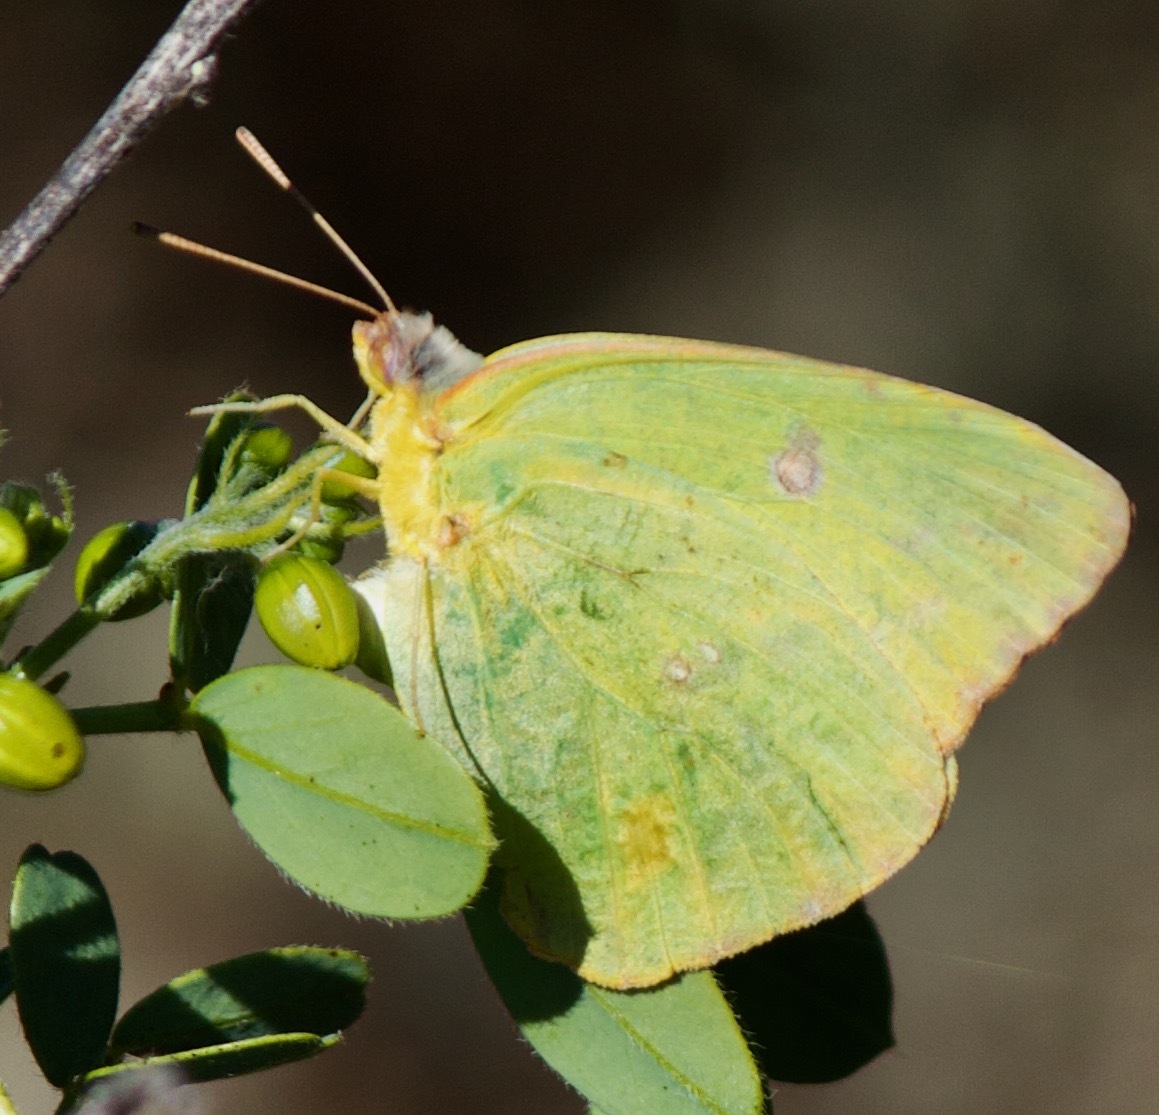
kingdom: Animalia
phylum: Arthropoda
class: Insecta
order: Lepidoptera
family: Pieridae
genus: Phoebis
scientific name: Phoebis sennae
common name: Cloudless sulphur
